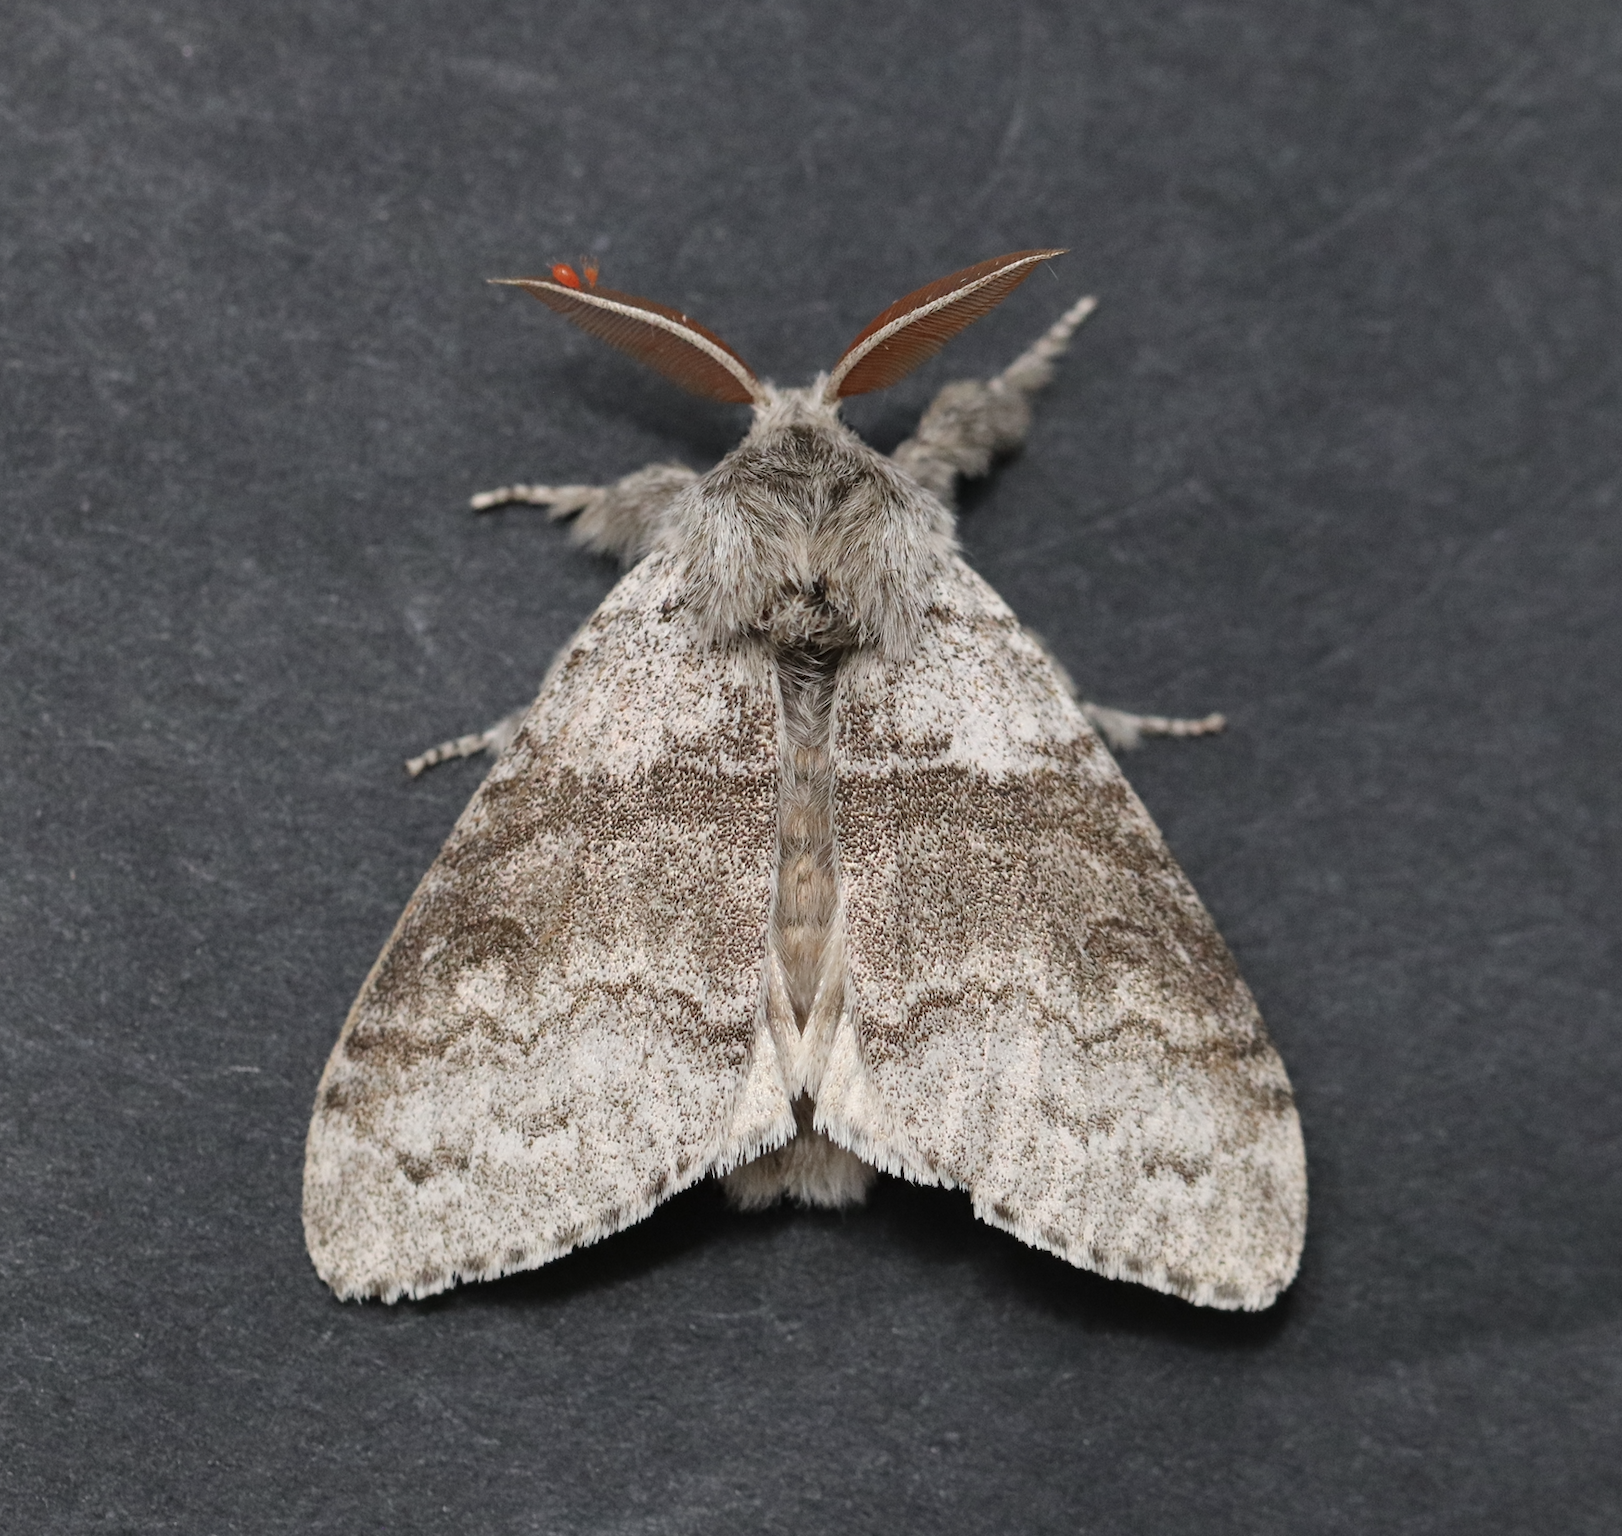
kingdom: Animalia
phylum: Arthropoda
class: Insecta
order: Lepidoptera
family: Erebidae
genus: Calliteara
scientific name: Calliteara pudibunda
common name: Pale tussock
